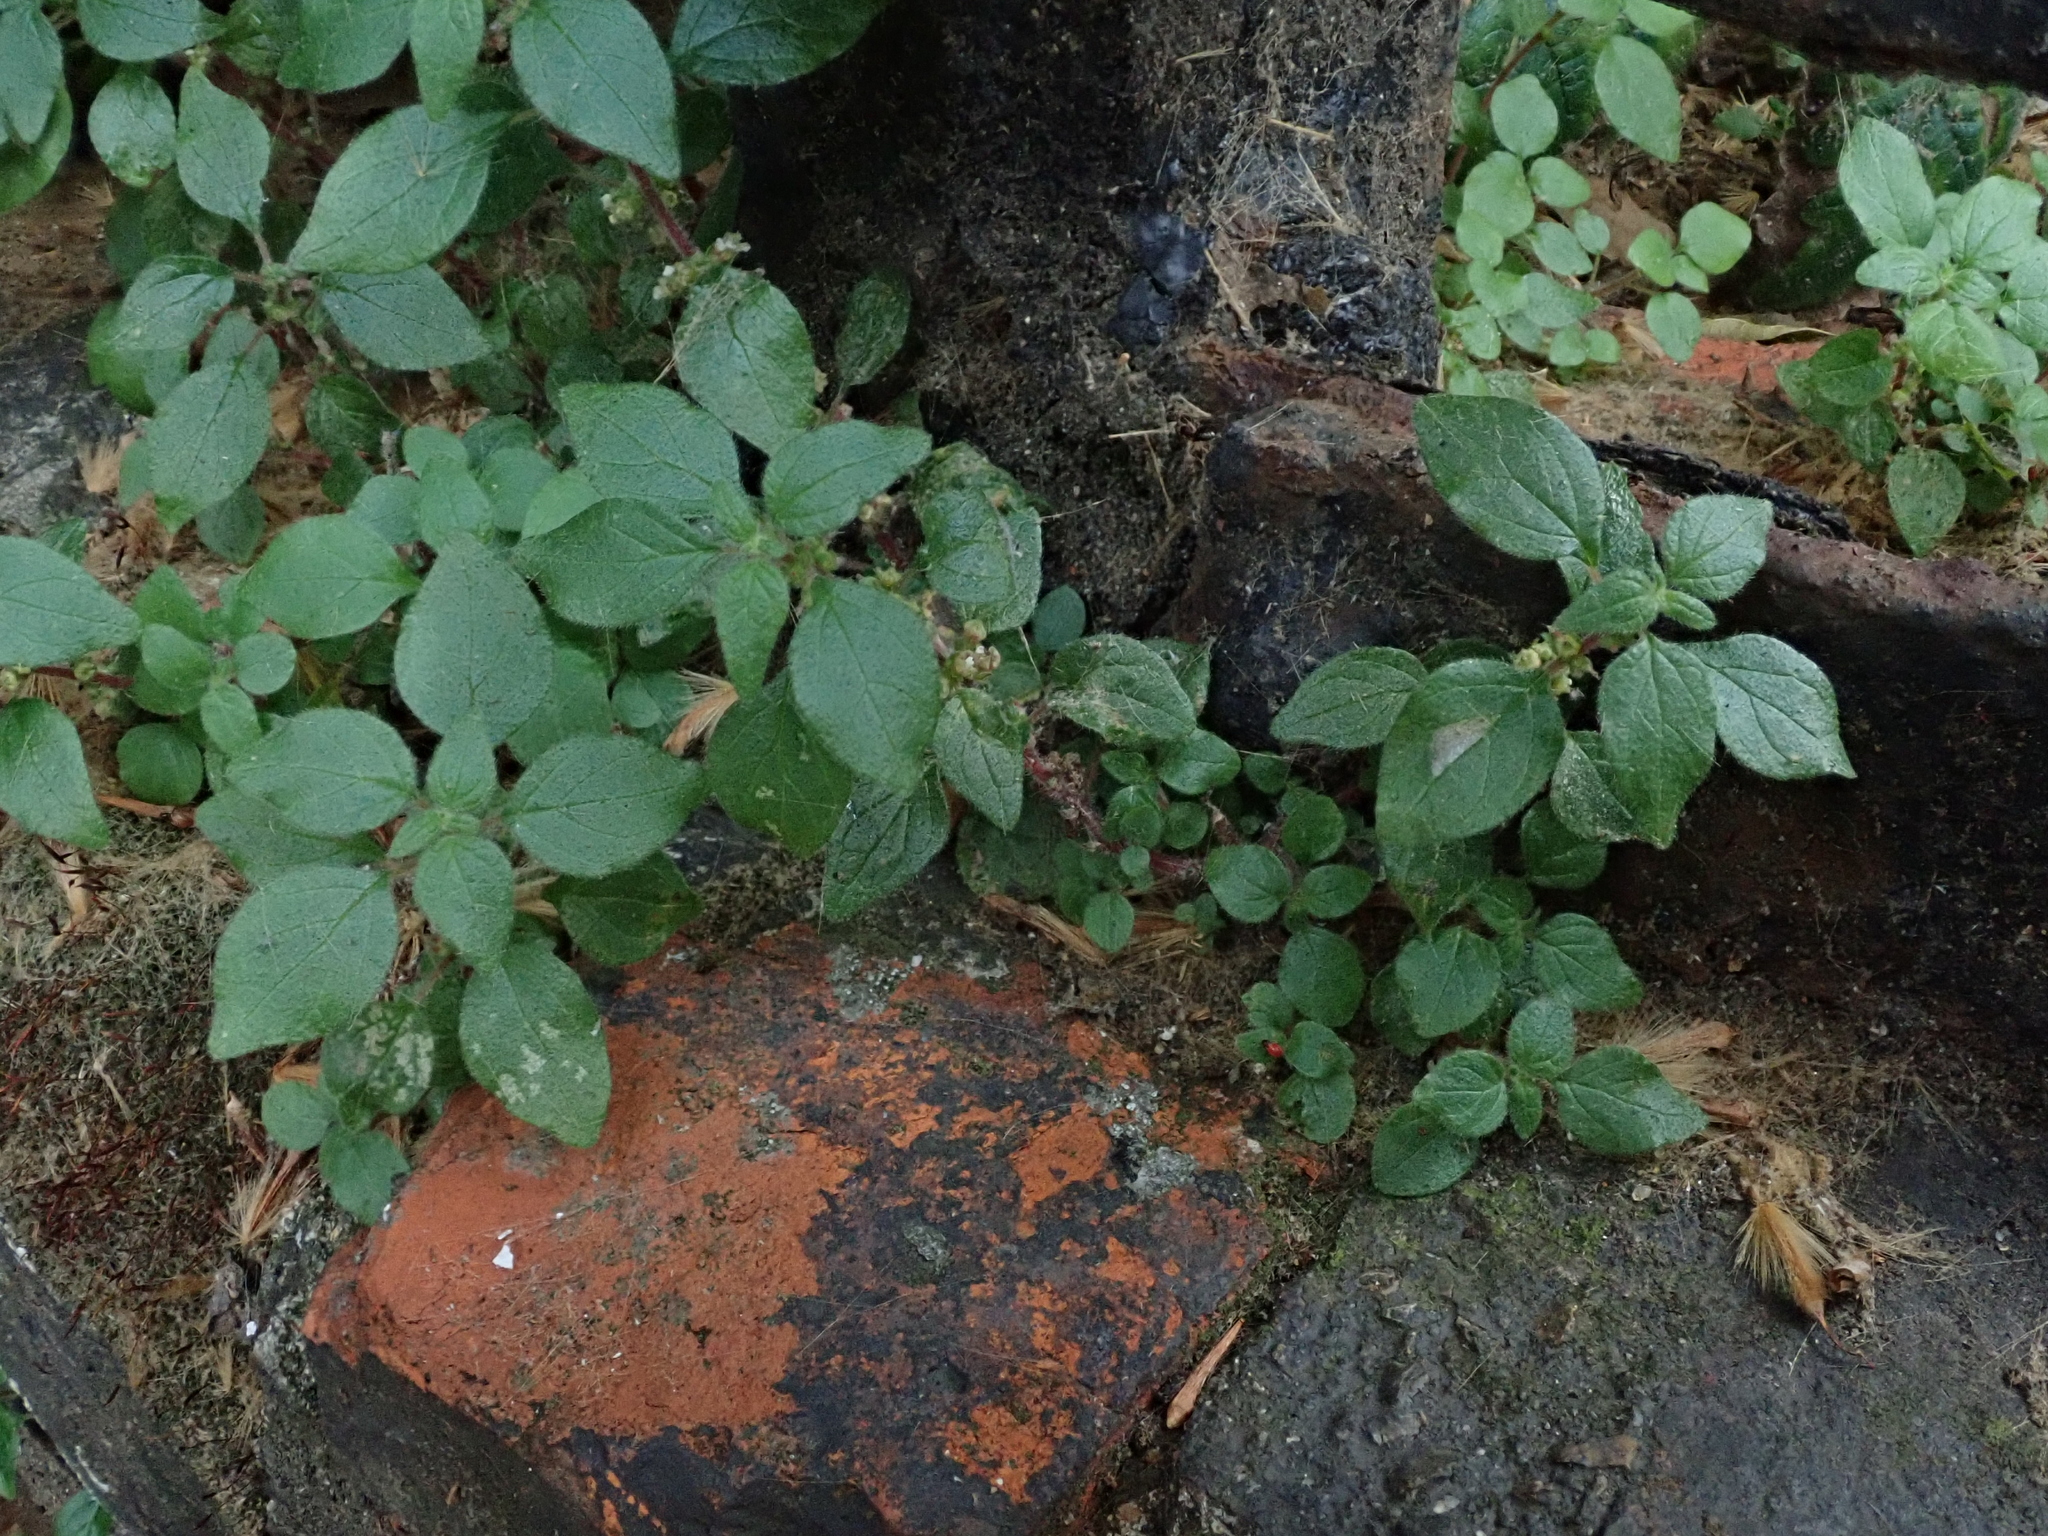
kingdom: Plantae
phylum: Tracheophyta
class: Magnoliopsida
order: Rosales
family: Urticaceae
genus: Parietaria
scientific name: Parietaria judaica
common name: Pellitory-of-the-wall
